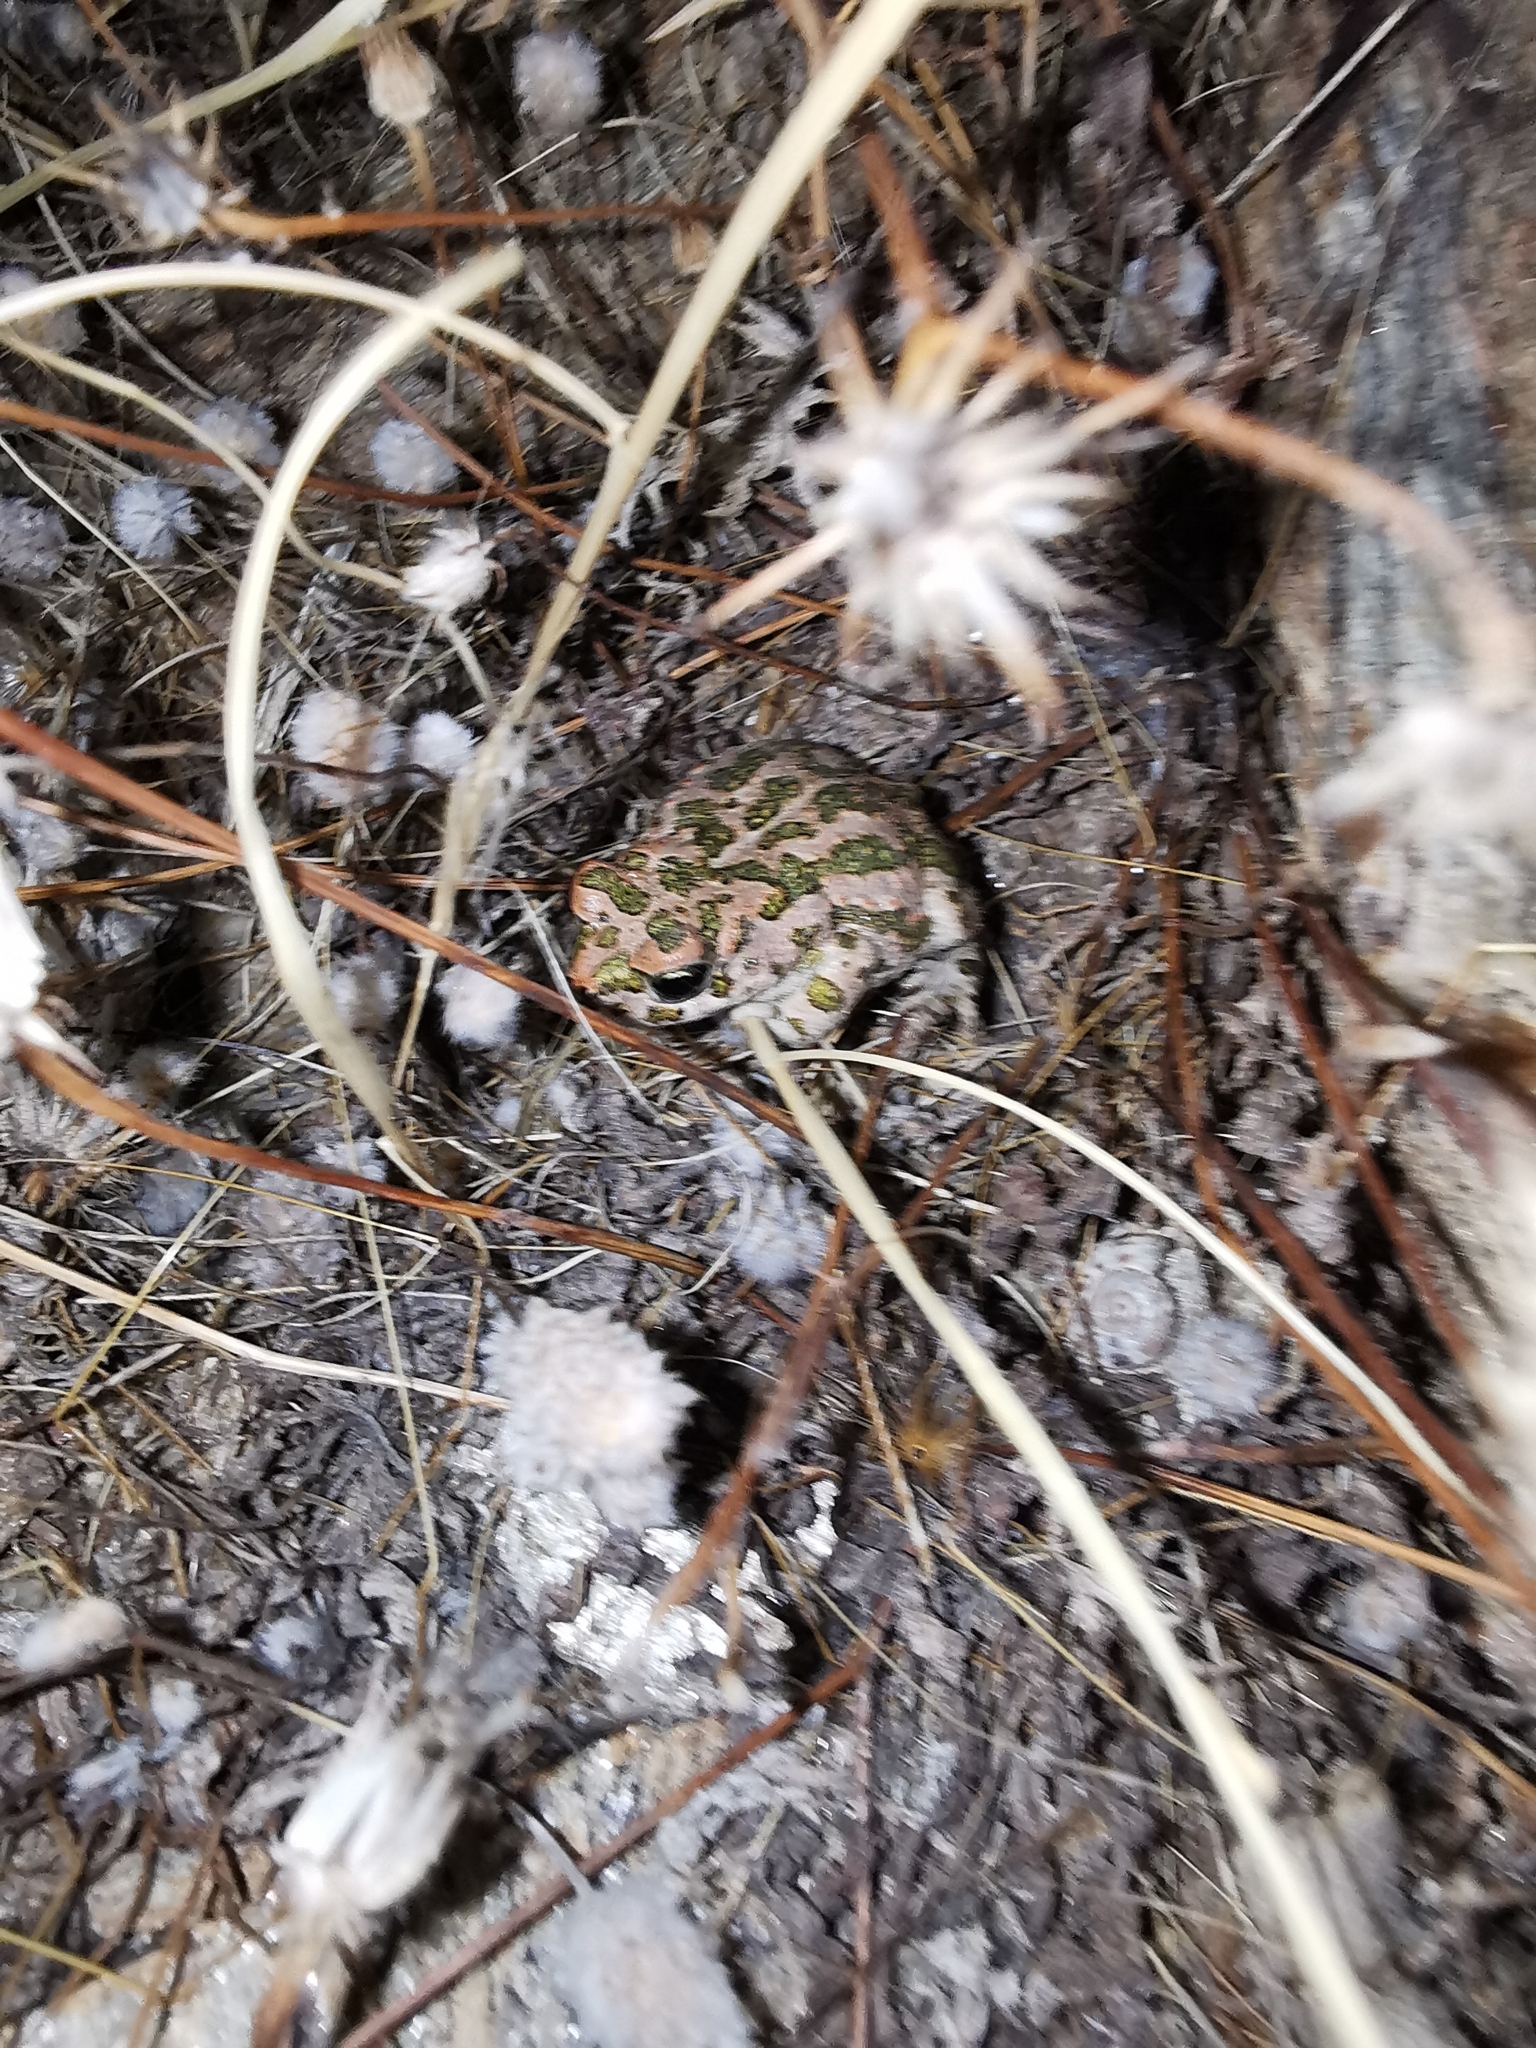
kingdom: Animalia
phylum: Chordata
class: Amphibia
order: Anura
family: Bufonidae
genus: Bufotes
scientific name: Bufotes viridis
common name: European green toad
